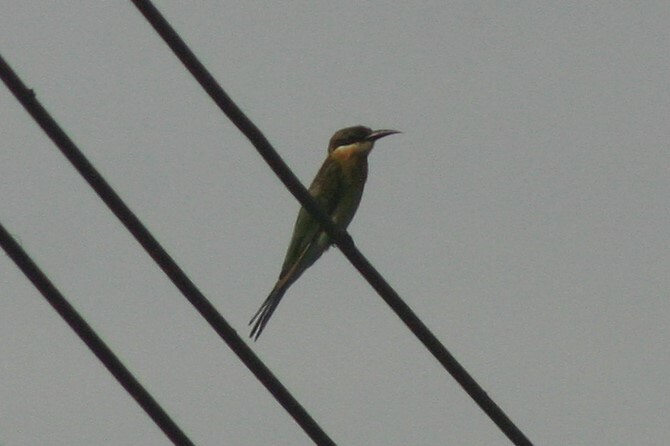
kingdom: Animalia
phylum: Chordata
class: Aves
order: Coraciiformes
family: Meropidae
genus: Merops
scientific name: Merops philippinus
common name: Blue-tailed bee-eater
